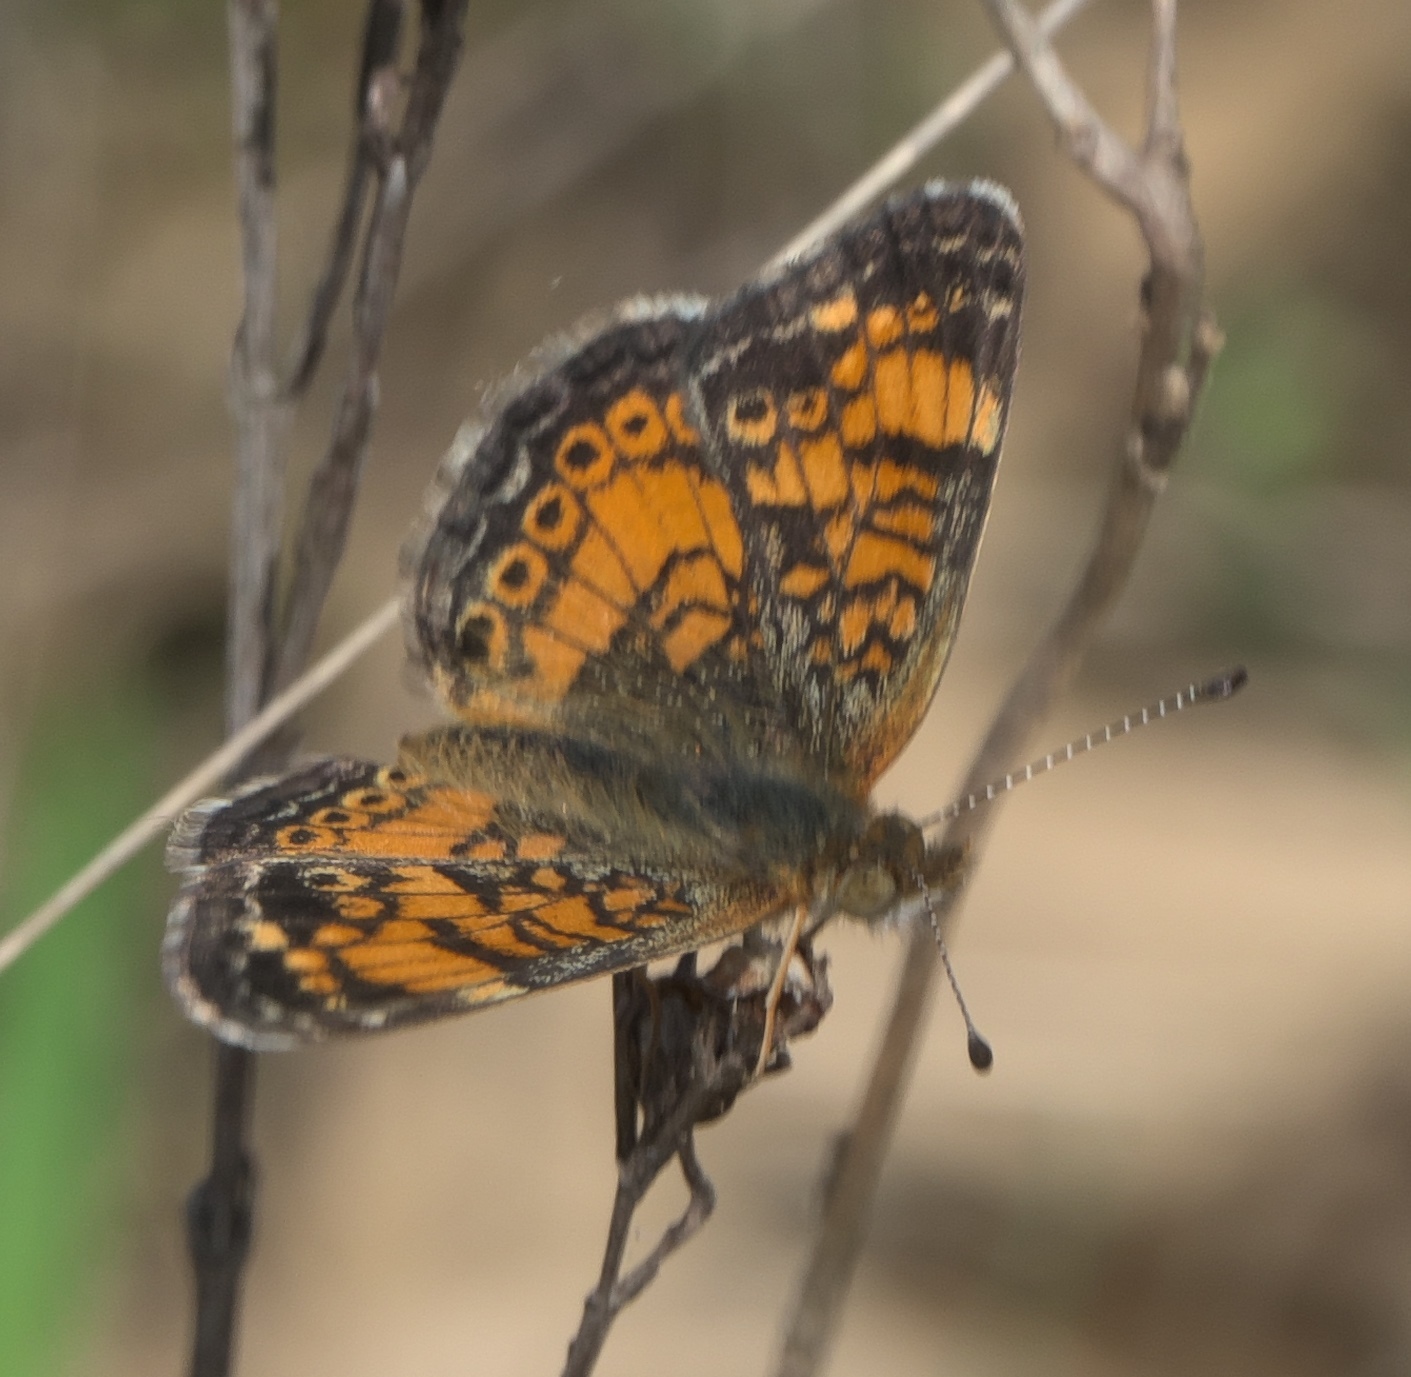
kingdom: Animalia
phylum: Arthropoda
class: Insecta
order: Lepidoptera
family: Nymphalidae
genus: Phyciodes
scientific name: Phyciodes tharos
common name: Pearl crescent
